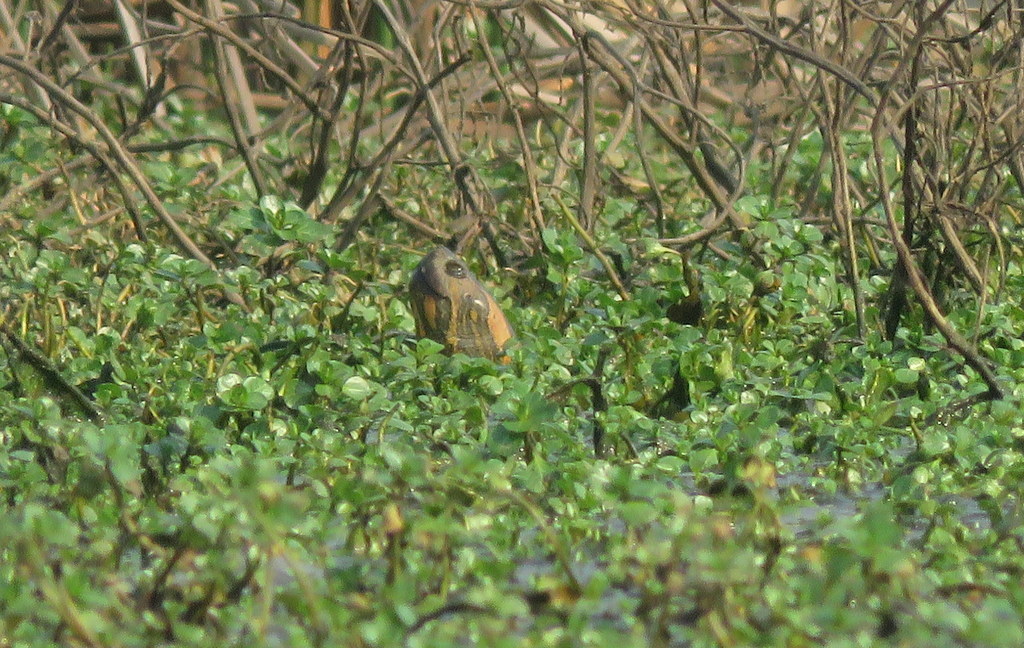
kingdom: Animalia
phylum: Chordata
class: Testudines
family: Emydidae
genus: Trachemys
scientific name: Trachemys dorbigni
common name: Black-bellied slider
